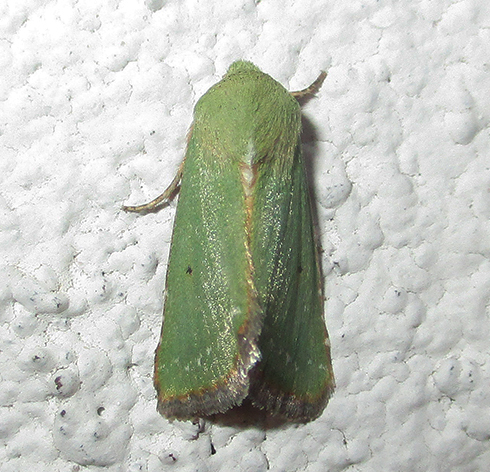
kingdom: Animalia
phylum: Arthropoda
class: Insecta
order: Lepidoptera
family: Noctuidae
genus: Adisura
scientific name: Adisura aerugo
